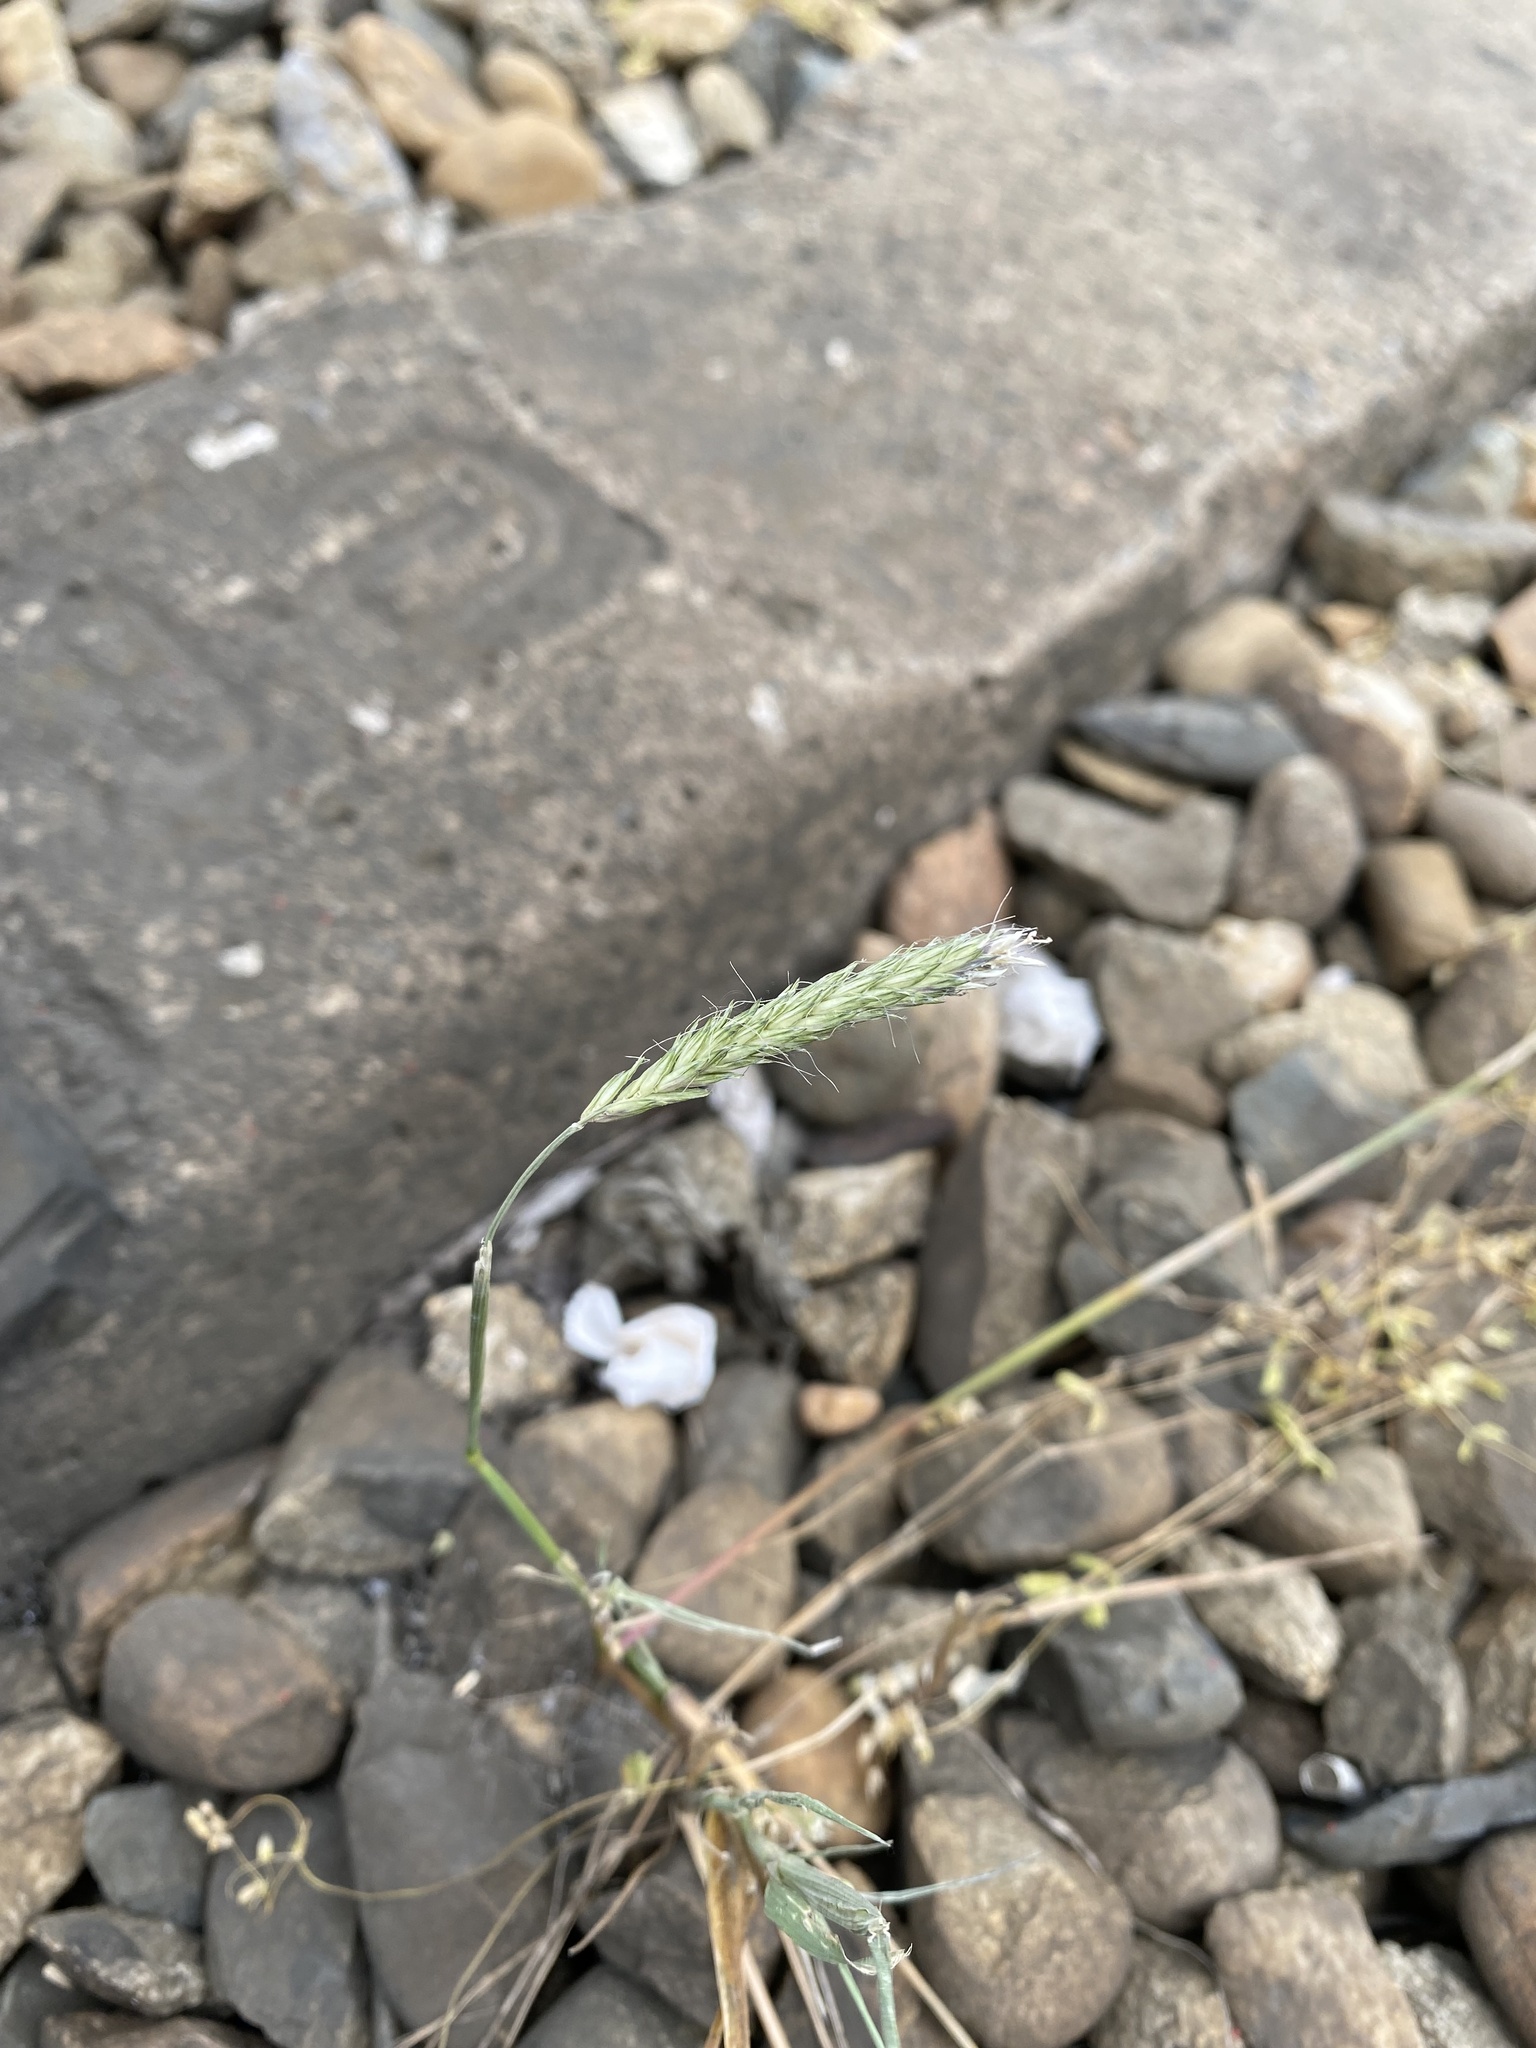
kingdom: Plantae
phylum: Tracheophyta
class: Liliopsida
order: Poales
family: Poaceae
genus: Alopecurus
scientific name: Alopecurus myosuroides
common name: Black-grass
